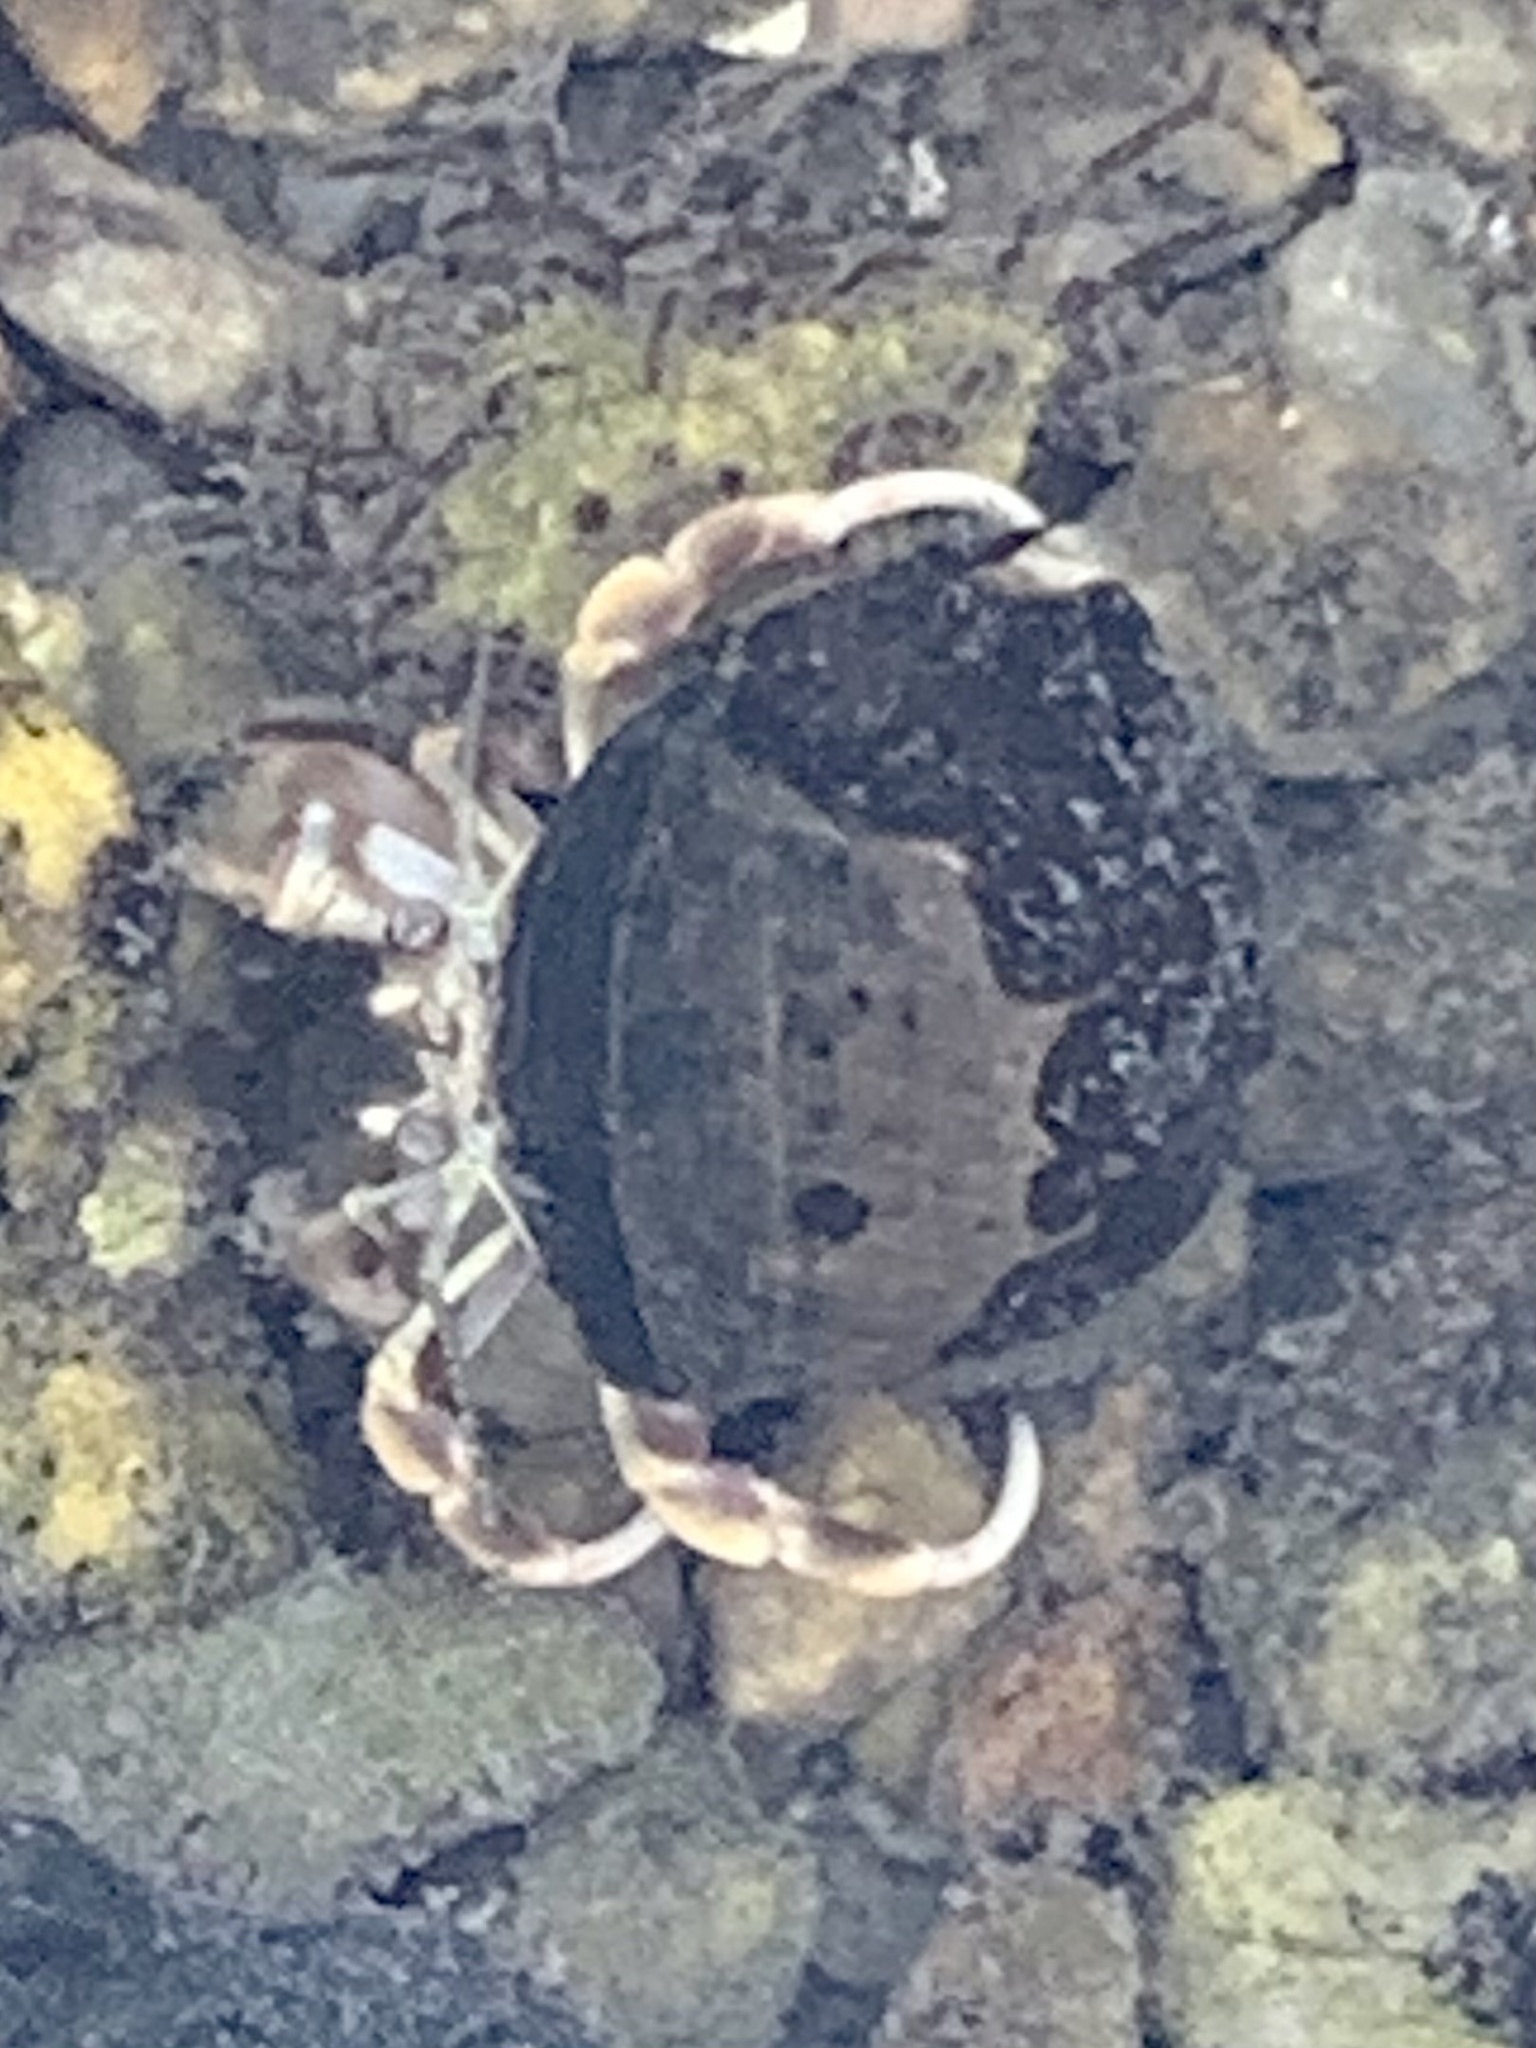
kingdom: Animalia
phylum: Arthropoda
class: Malacostraca
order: Decapoda
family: Paguridae
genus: Pagurus
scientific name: Pagurus longicarpus
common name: Long-armed hermit crab
